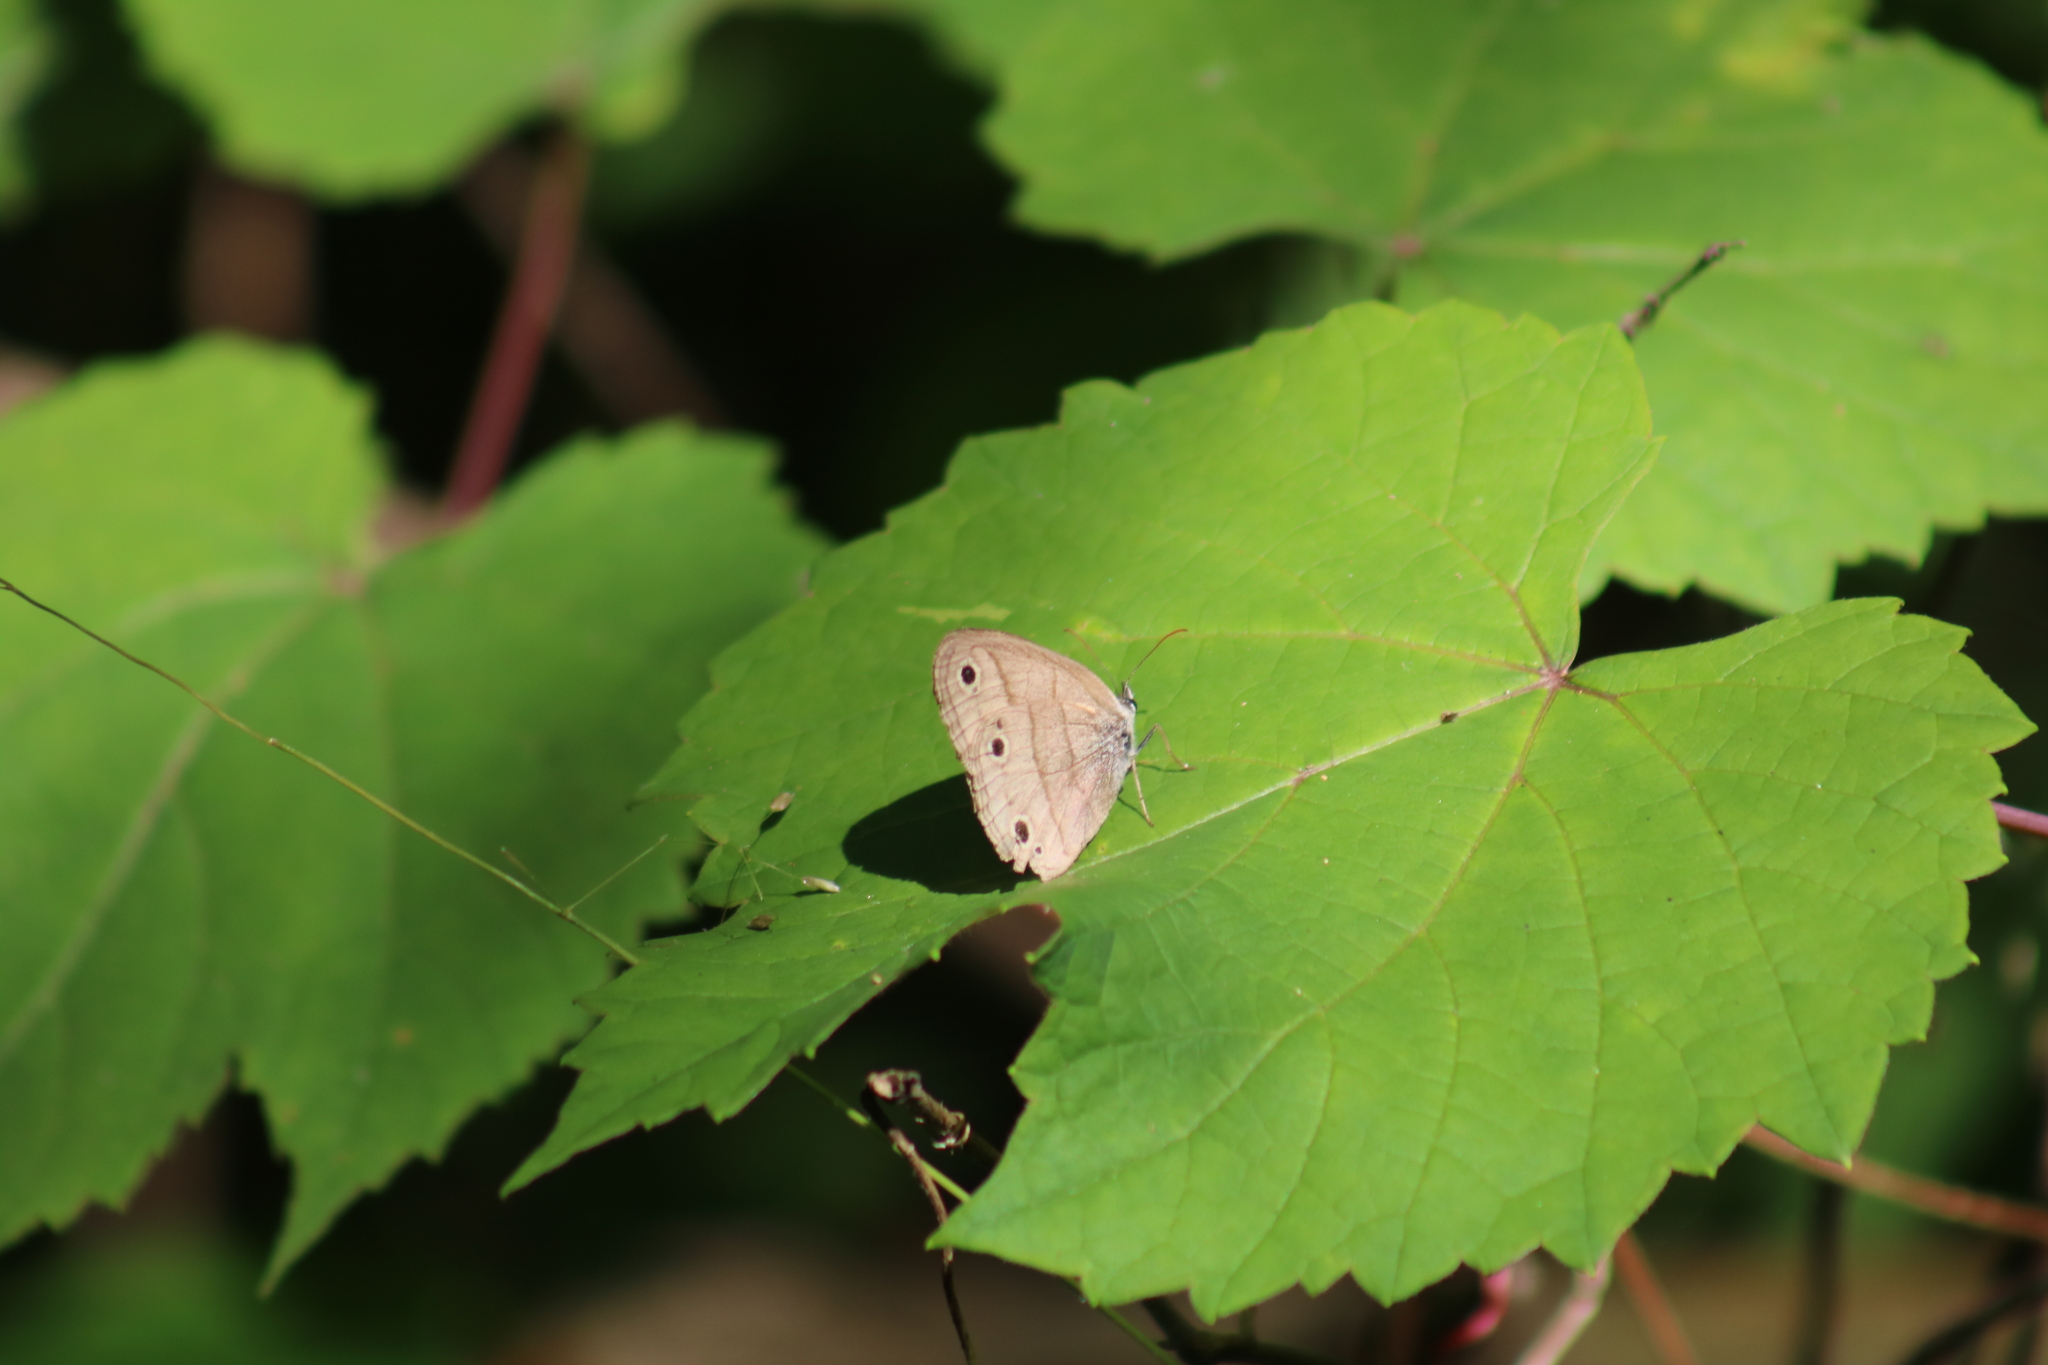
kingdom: Animalia
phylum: Arthropoda
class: Insecta
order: Lepidoptera
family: Nymphalidae
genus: Euptychia
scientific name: Euptychia cymela
